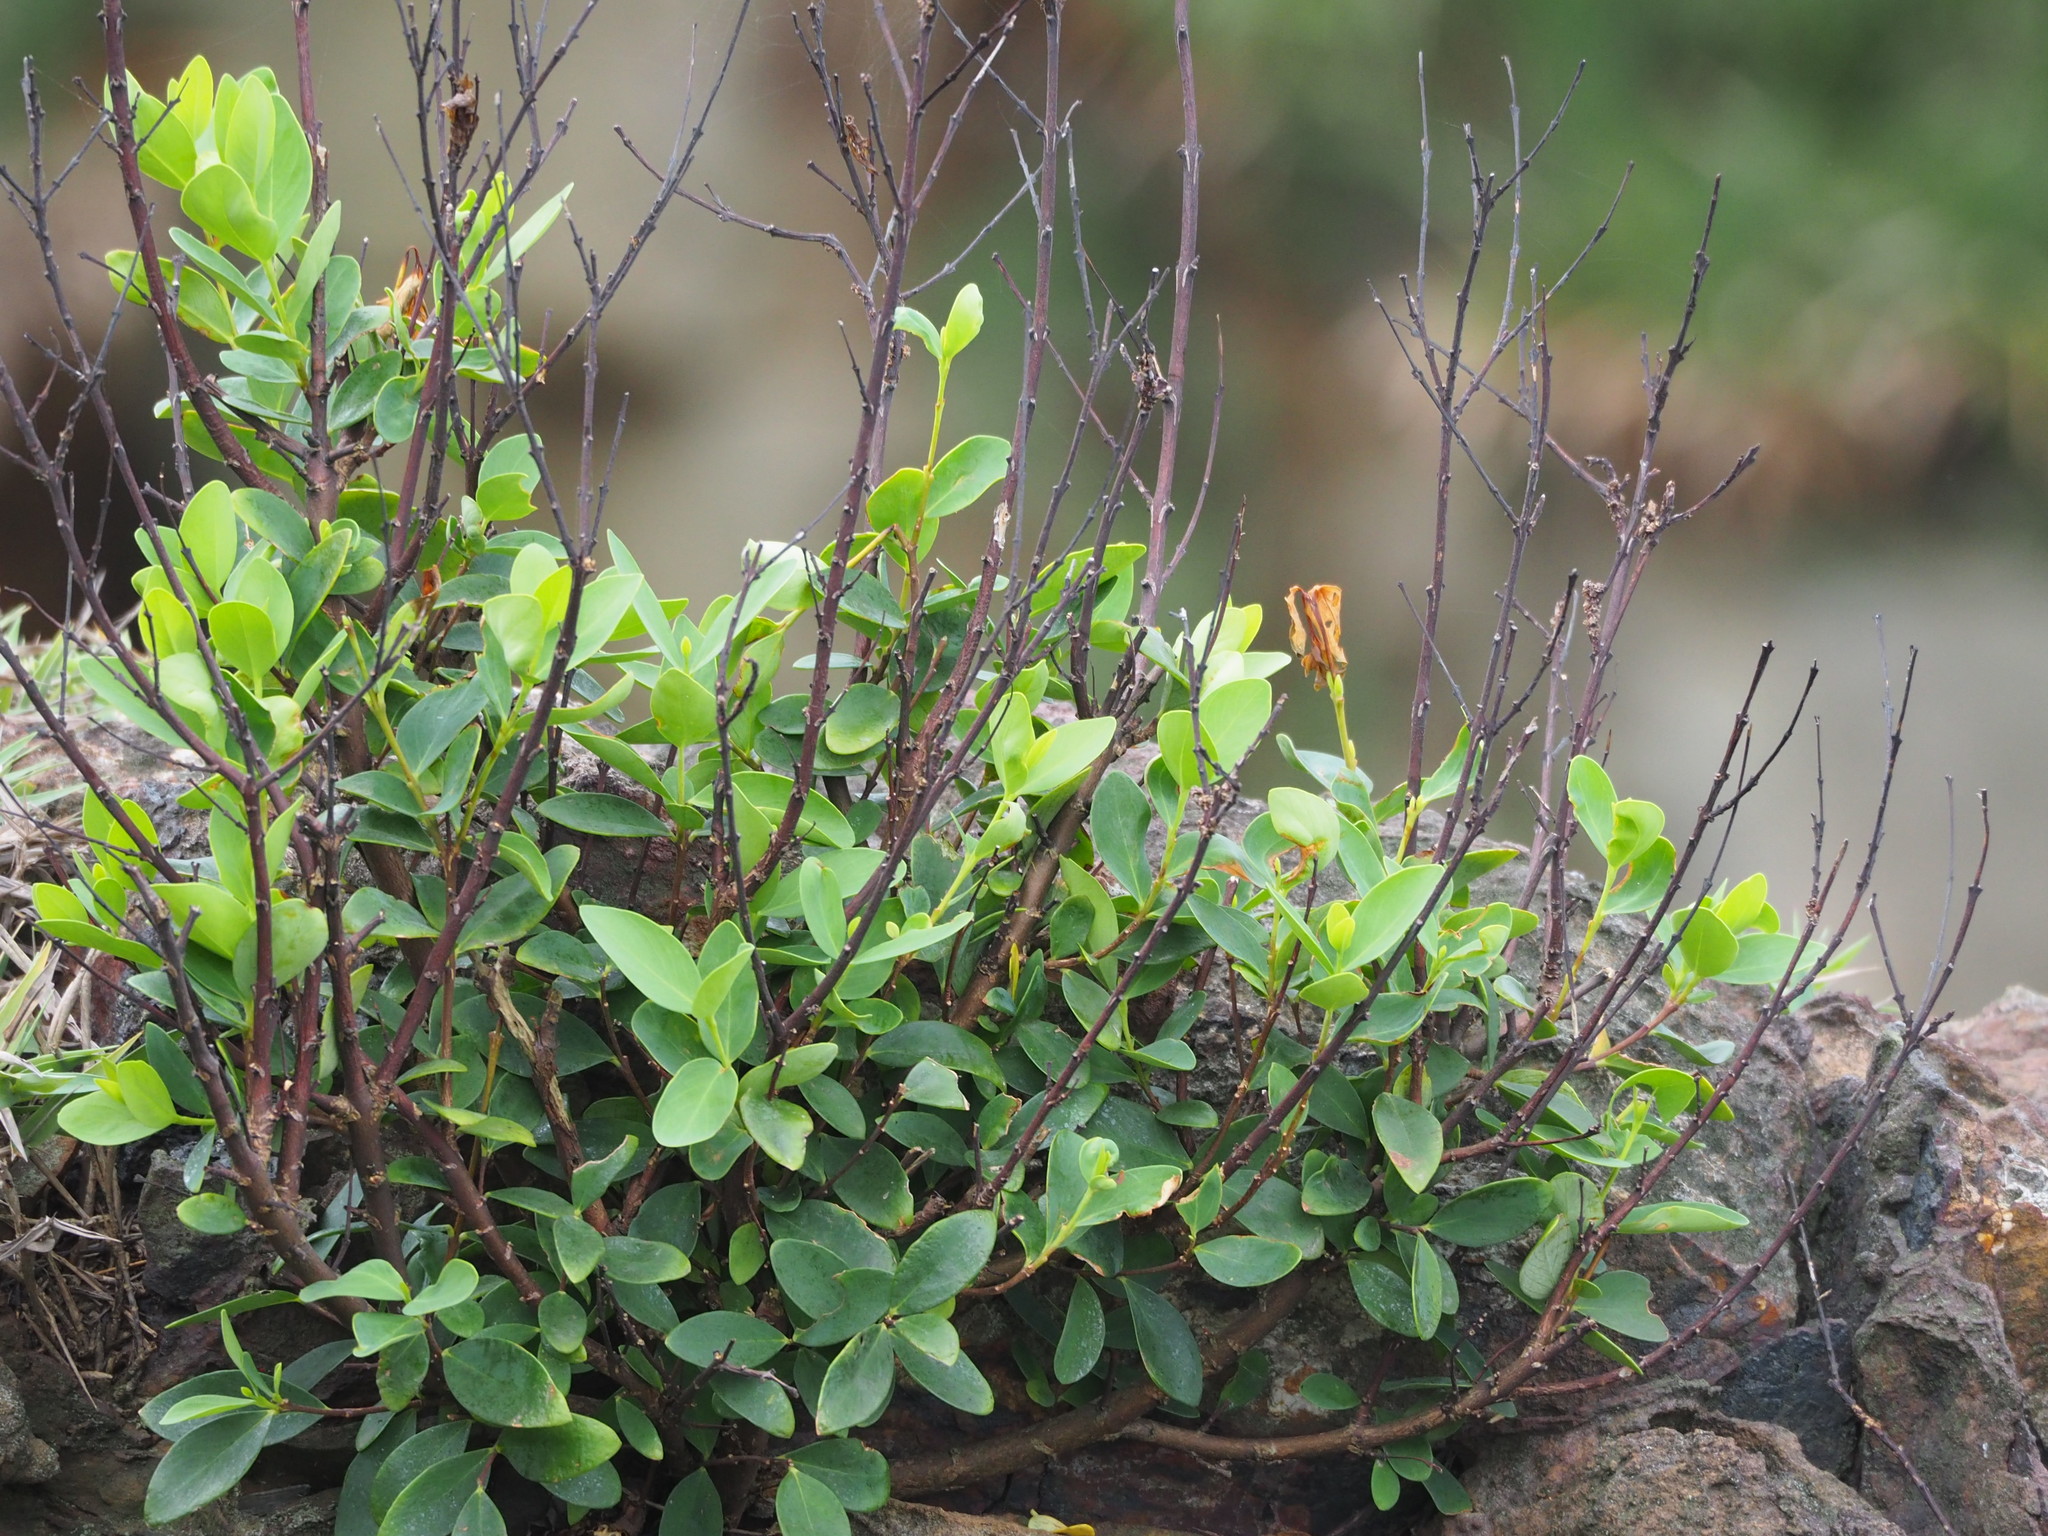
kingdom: Plantae
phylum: Tracheophyta
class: Magnoliopsida
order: Malvales
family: Thymelaeaceae
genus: Wikstroemia
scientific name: Wikstroemia indica
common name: Tiebush
